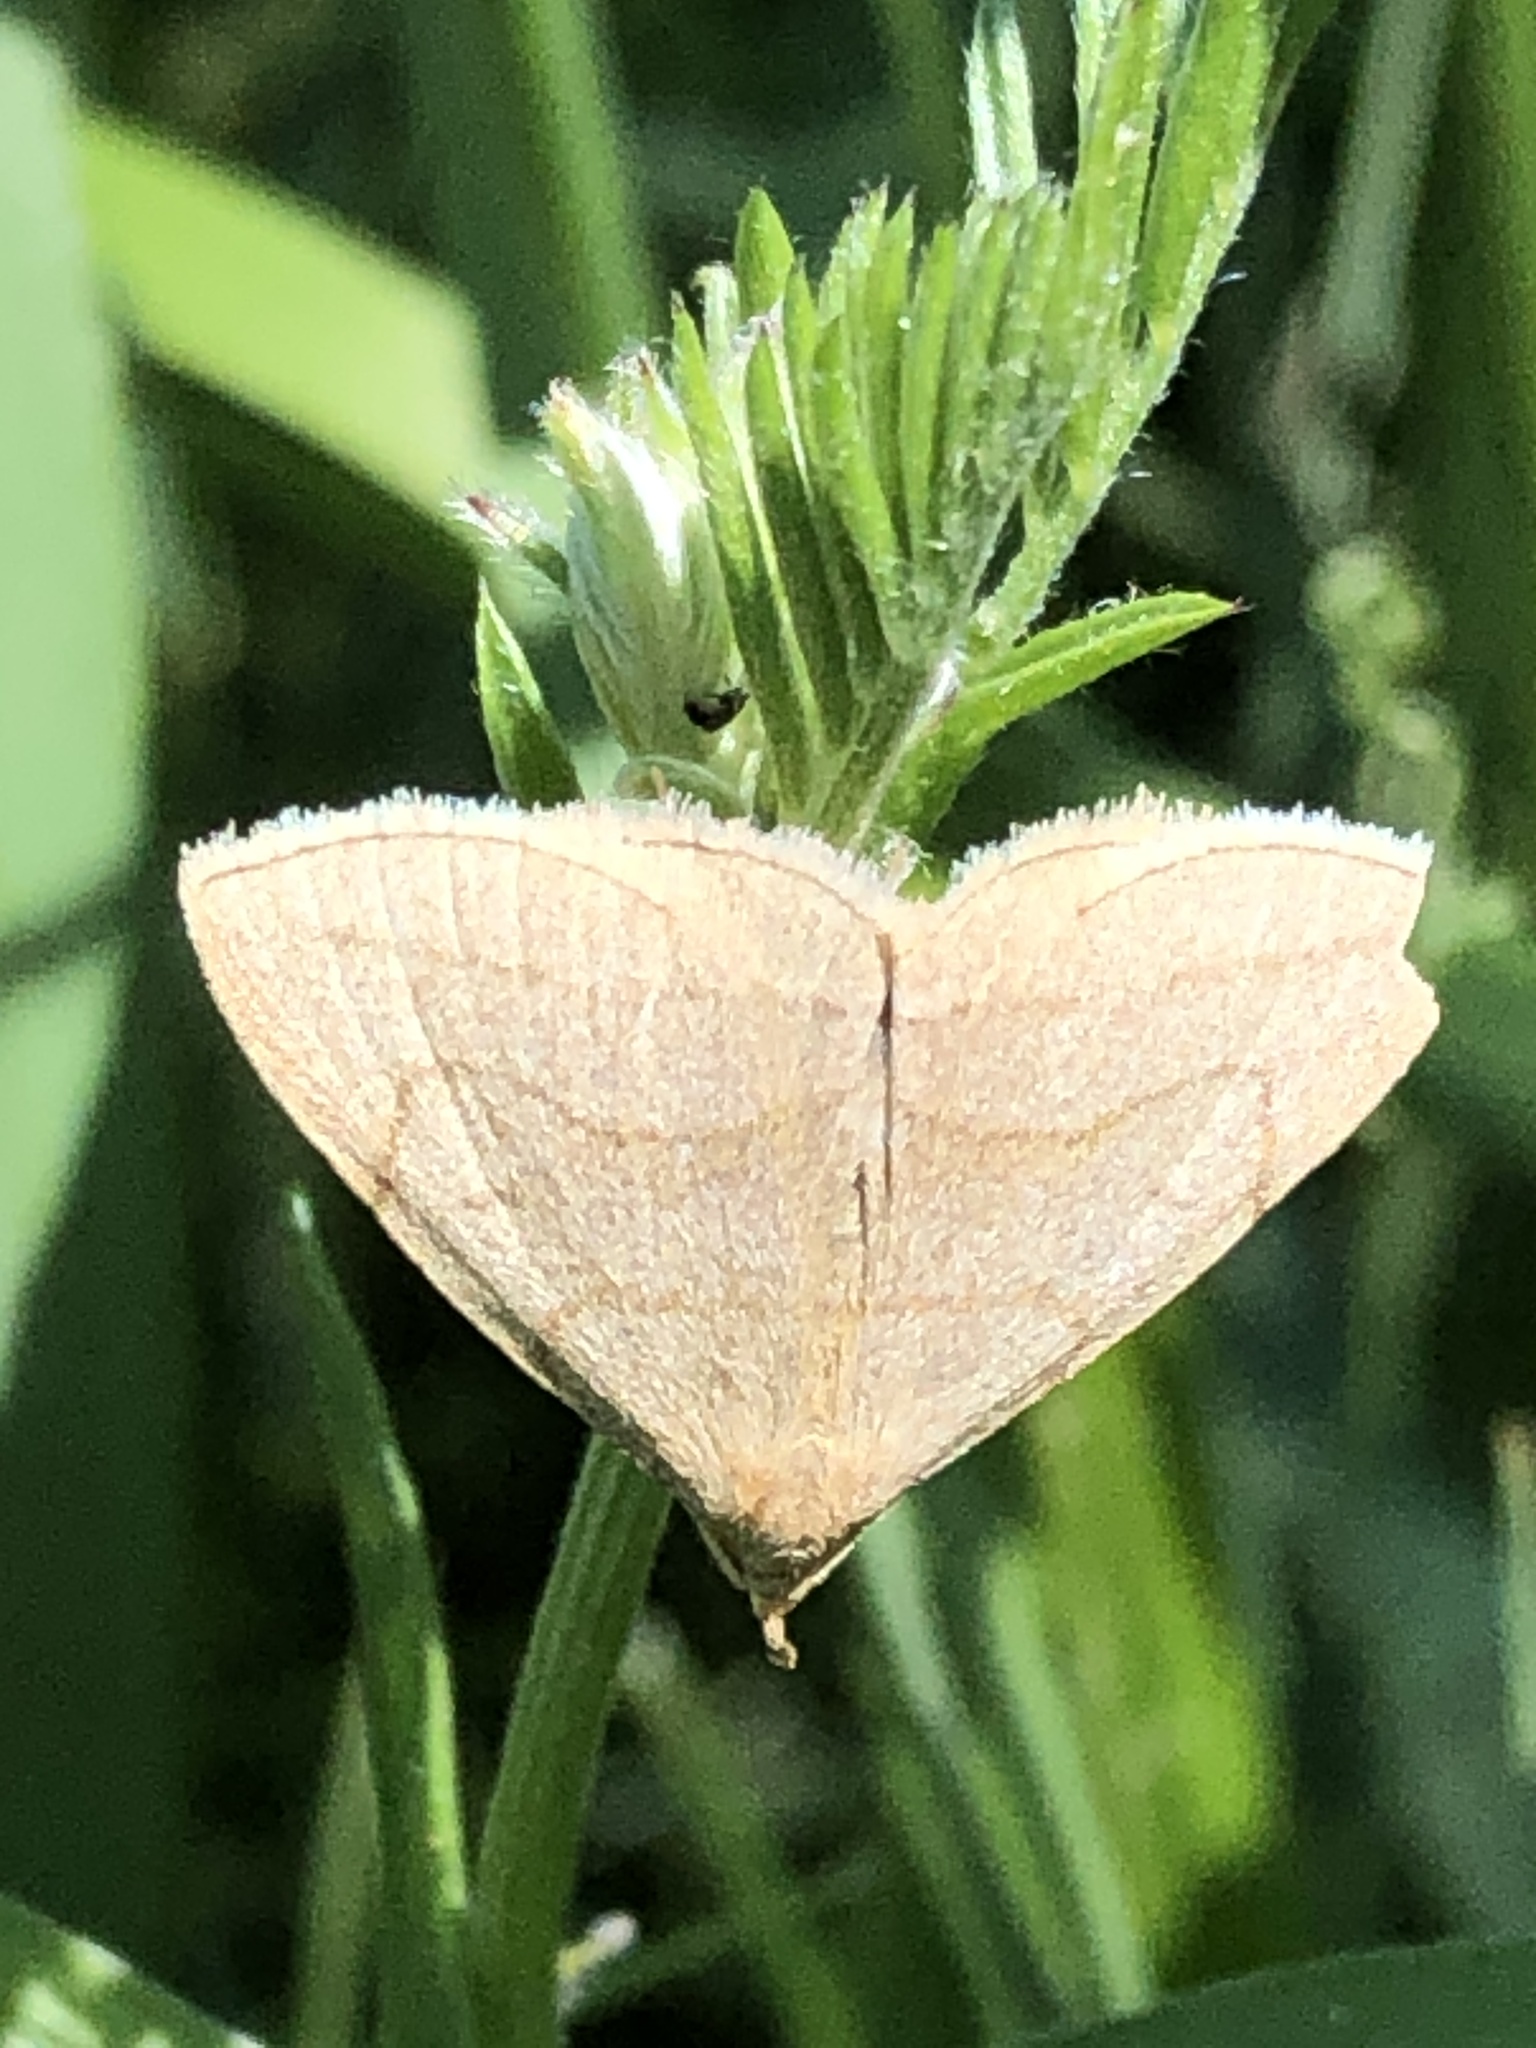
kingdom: Animalia
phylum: Arthropoda
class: Insecta
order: Lepidoptera
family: Erebidae
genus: Zanclognatha
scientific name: Zanclognatha pedipilalis
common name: Grayish fan-foot
